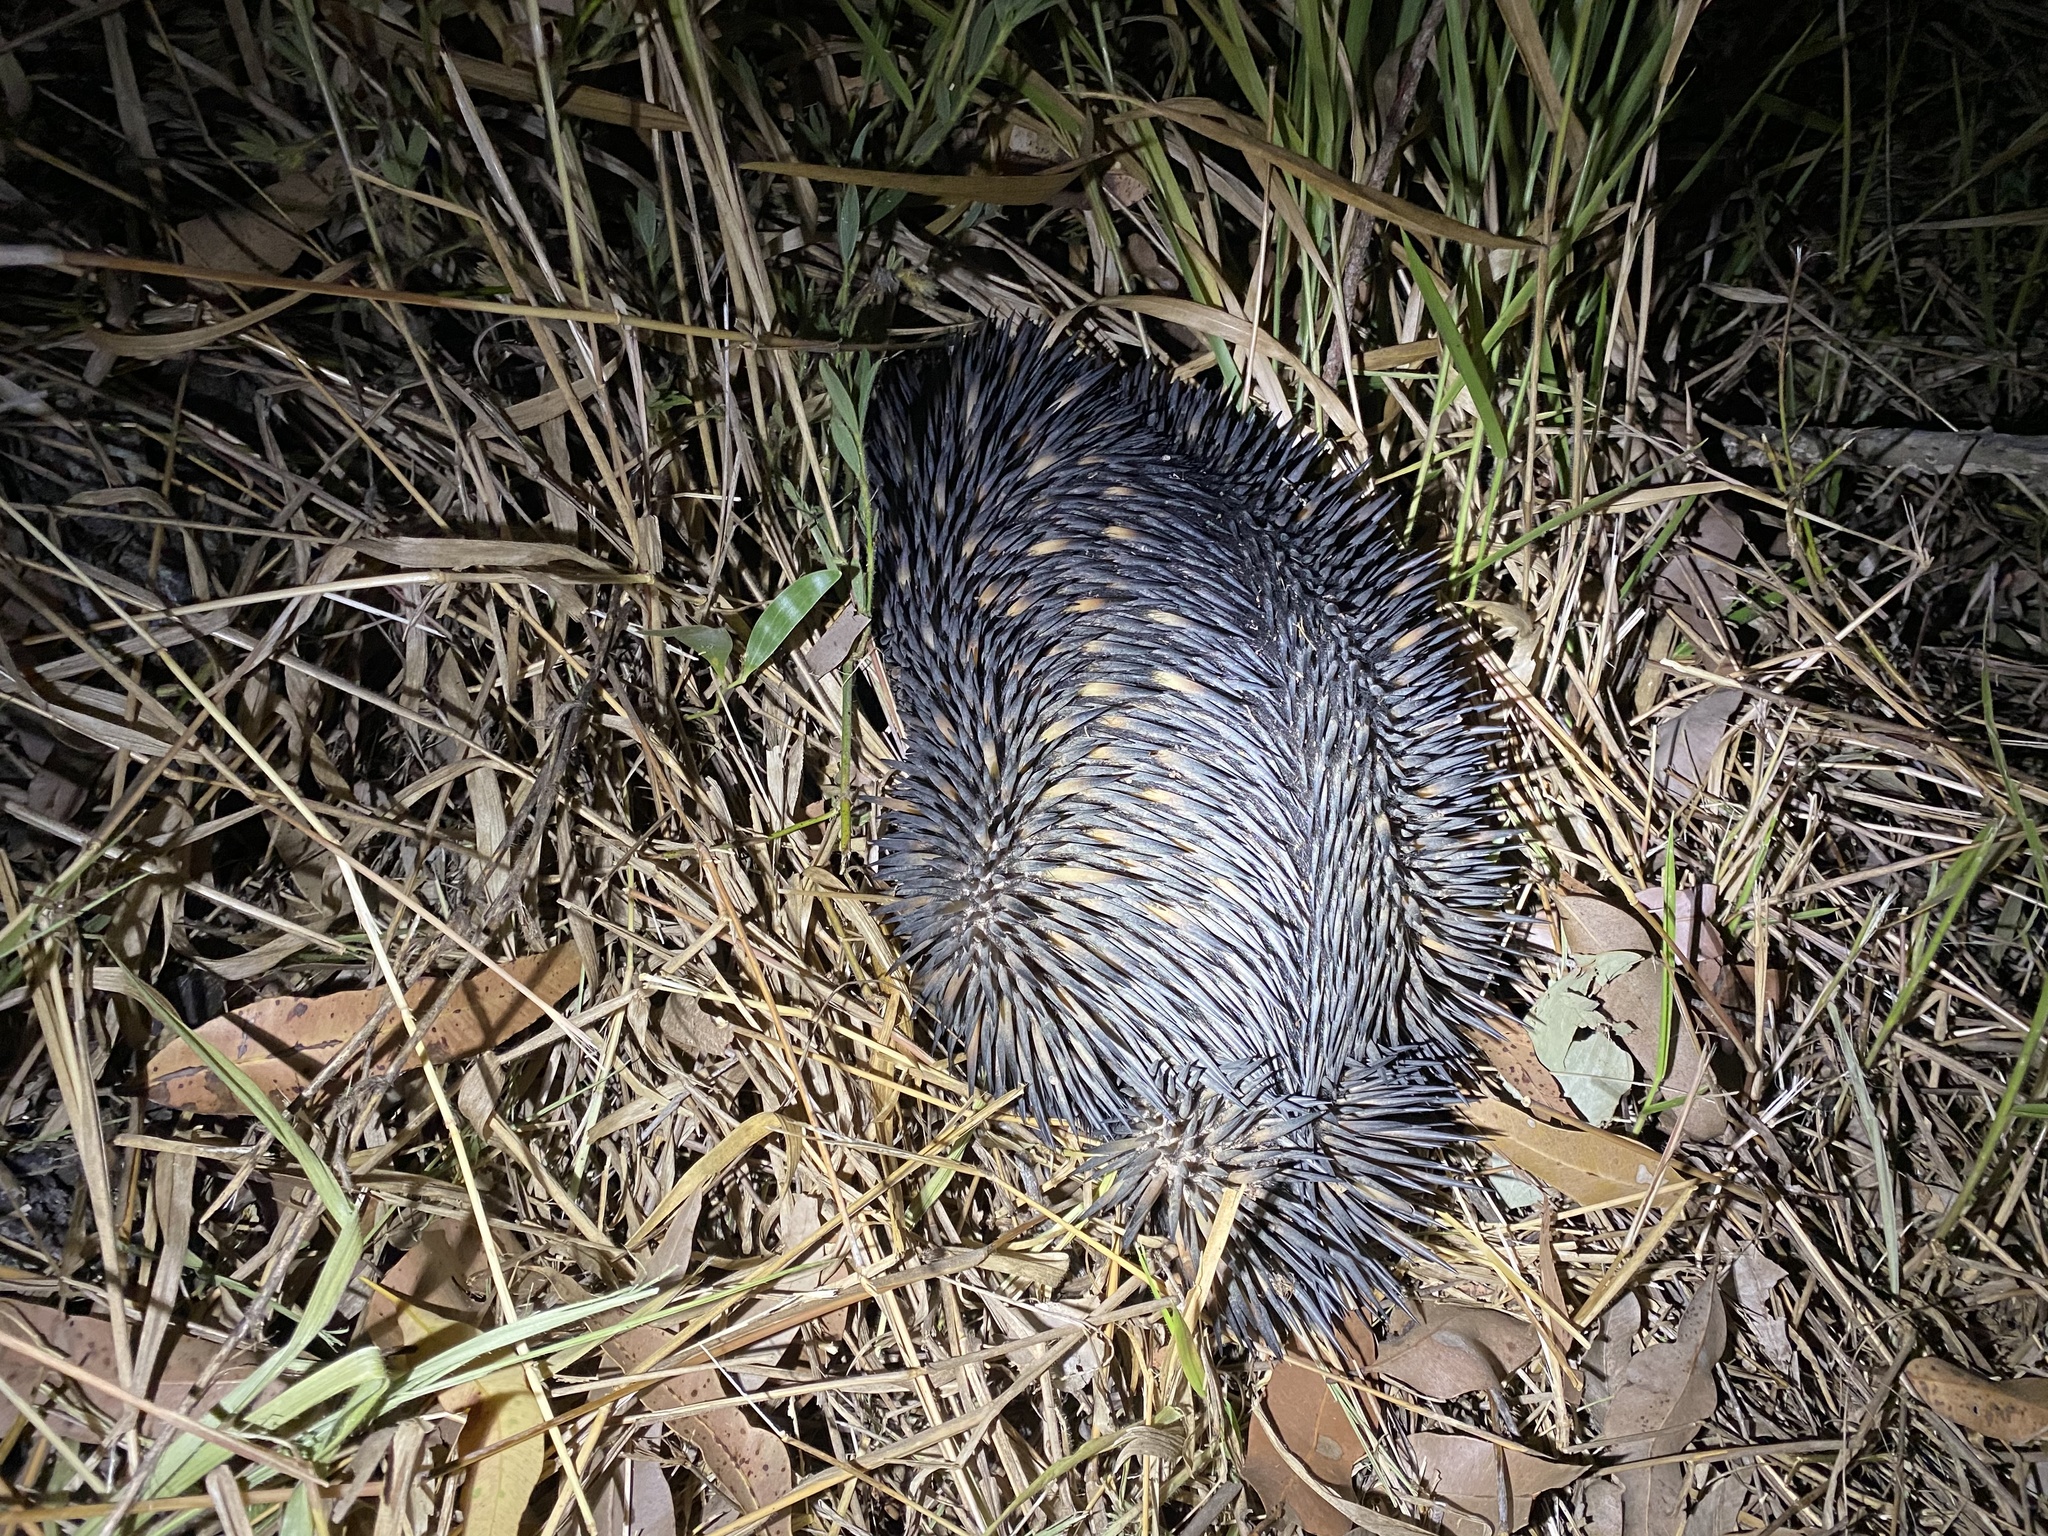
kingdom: Animalia
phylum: Chordata
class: Mammalia
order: Monotremata
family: Tachyglossidae
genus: Tachyglossus
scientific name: Tachyglossus aculeatus
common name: Short-beaked echidna
